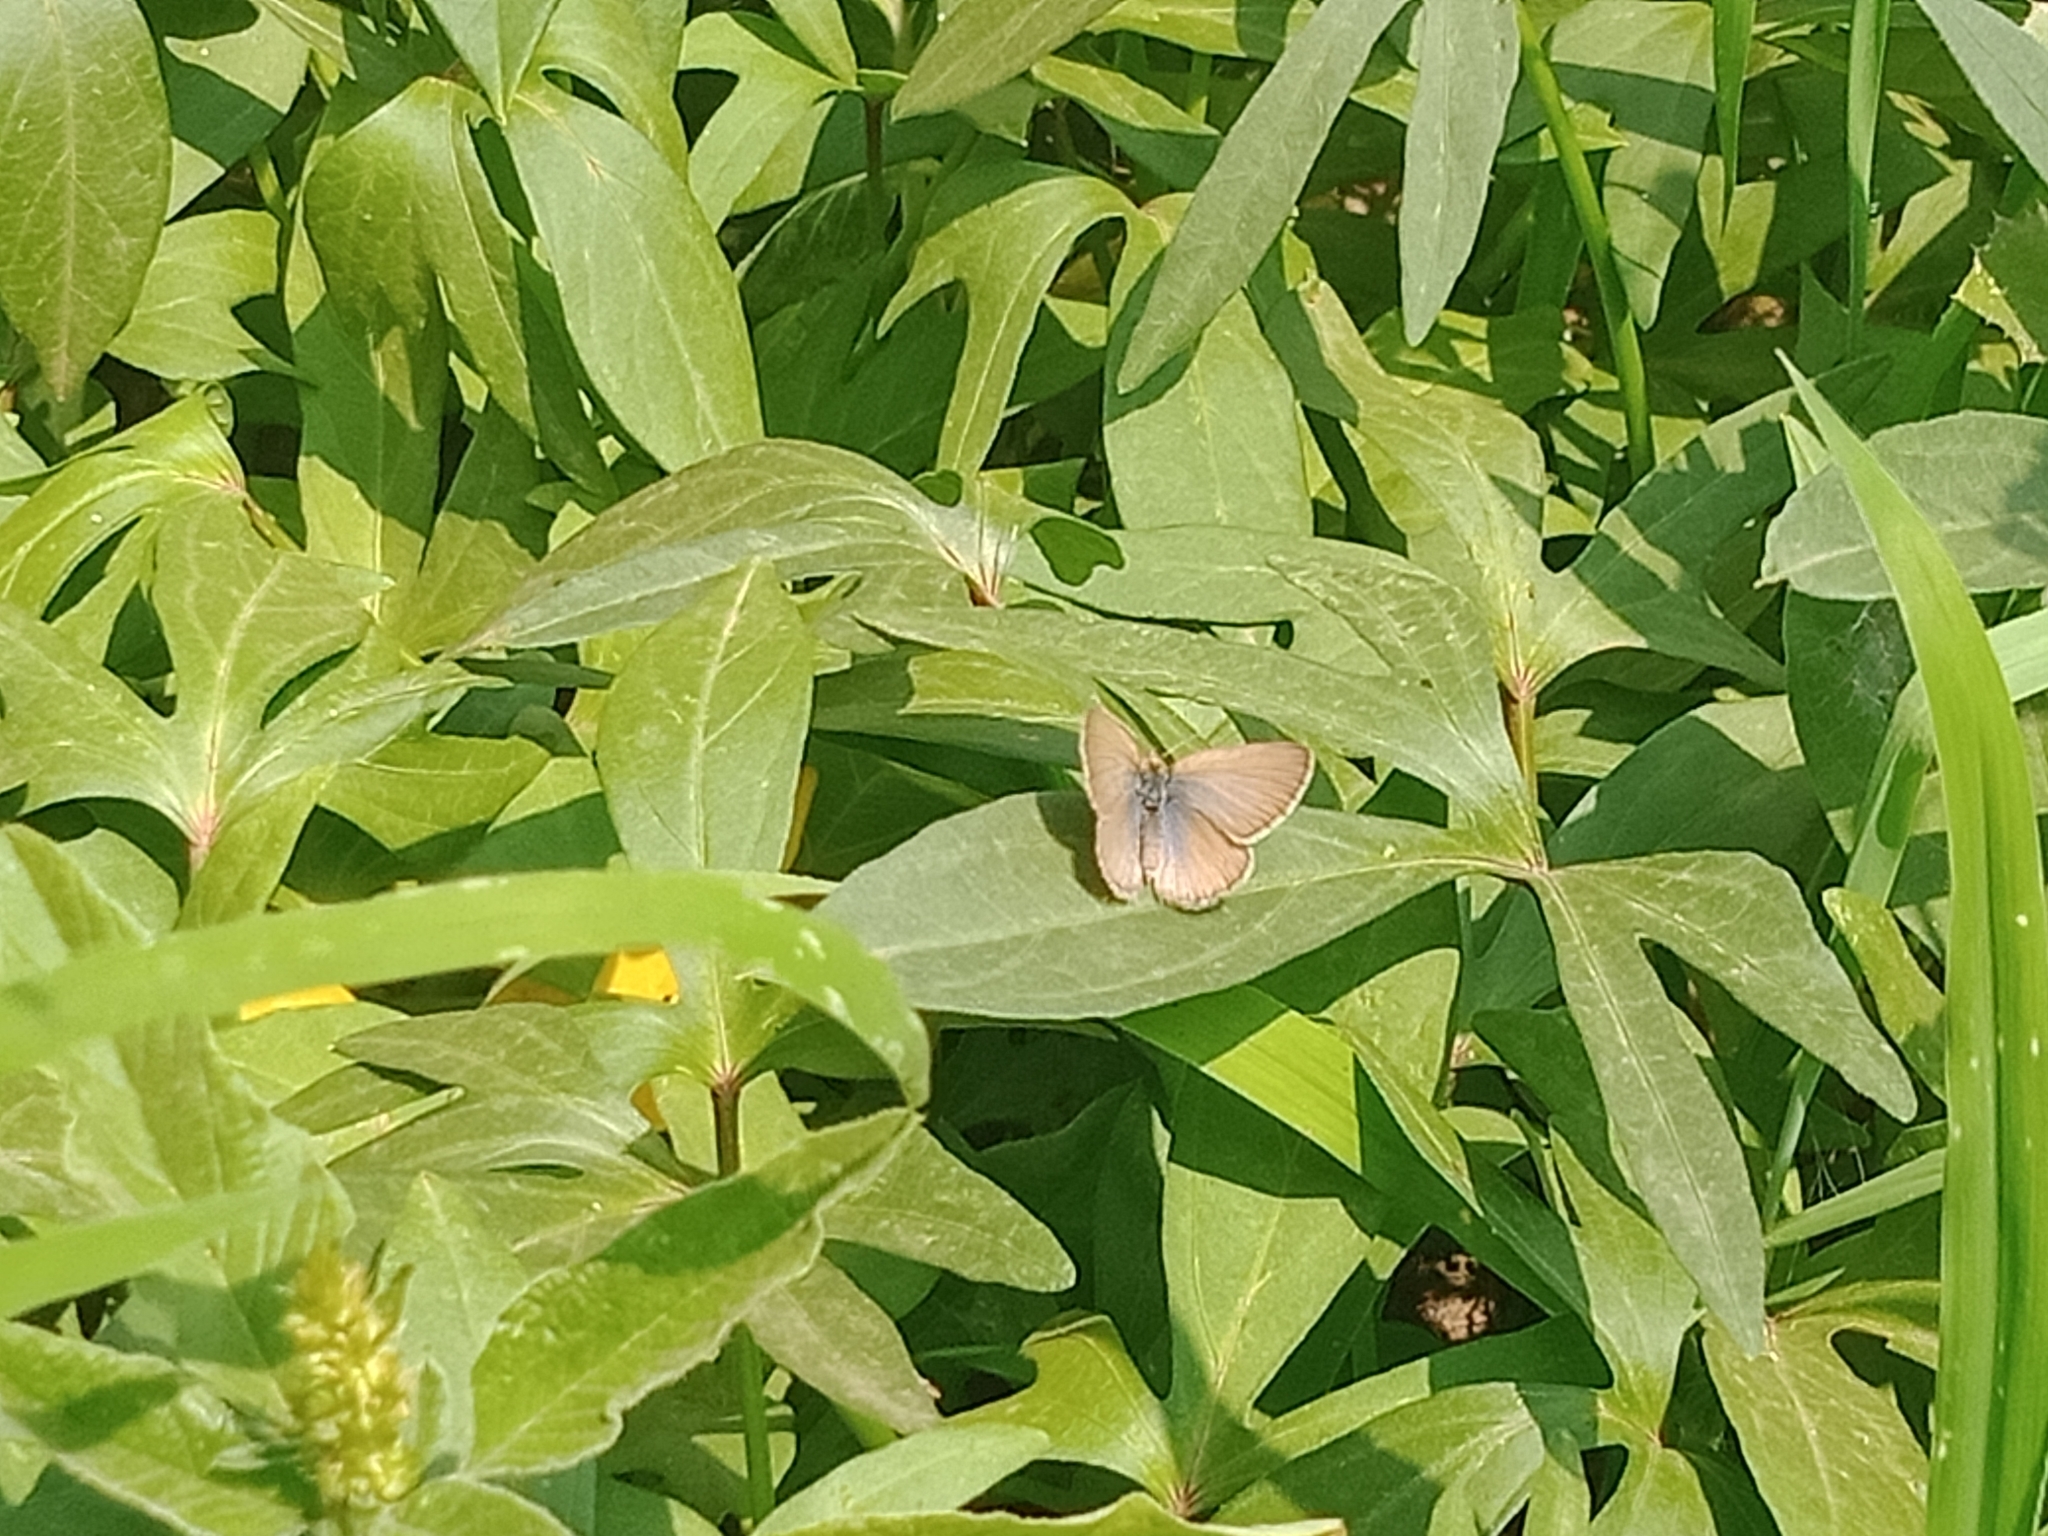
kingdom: Animalia
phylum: Arthropoda
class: Insecta
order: Lepidoptera
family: Lycaenidae
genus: Zizina
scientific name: Zizina labradus
